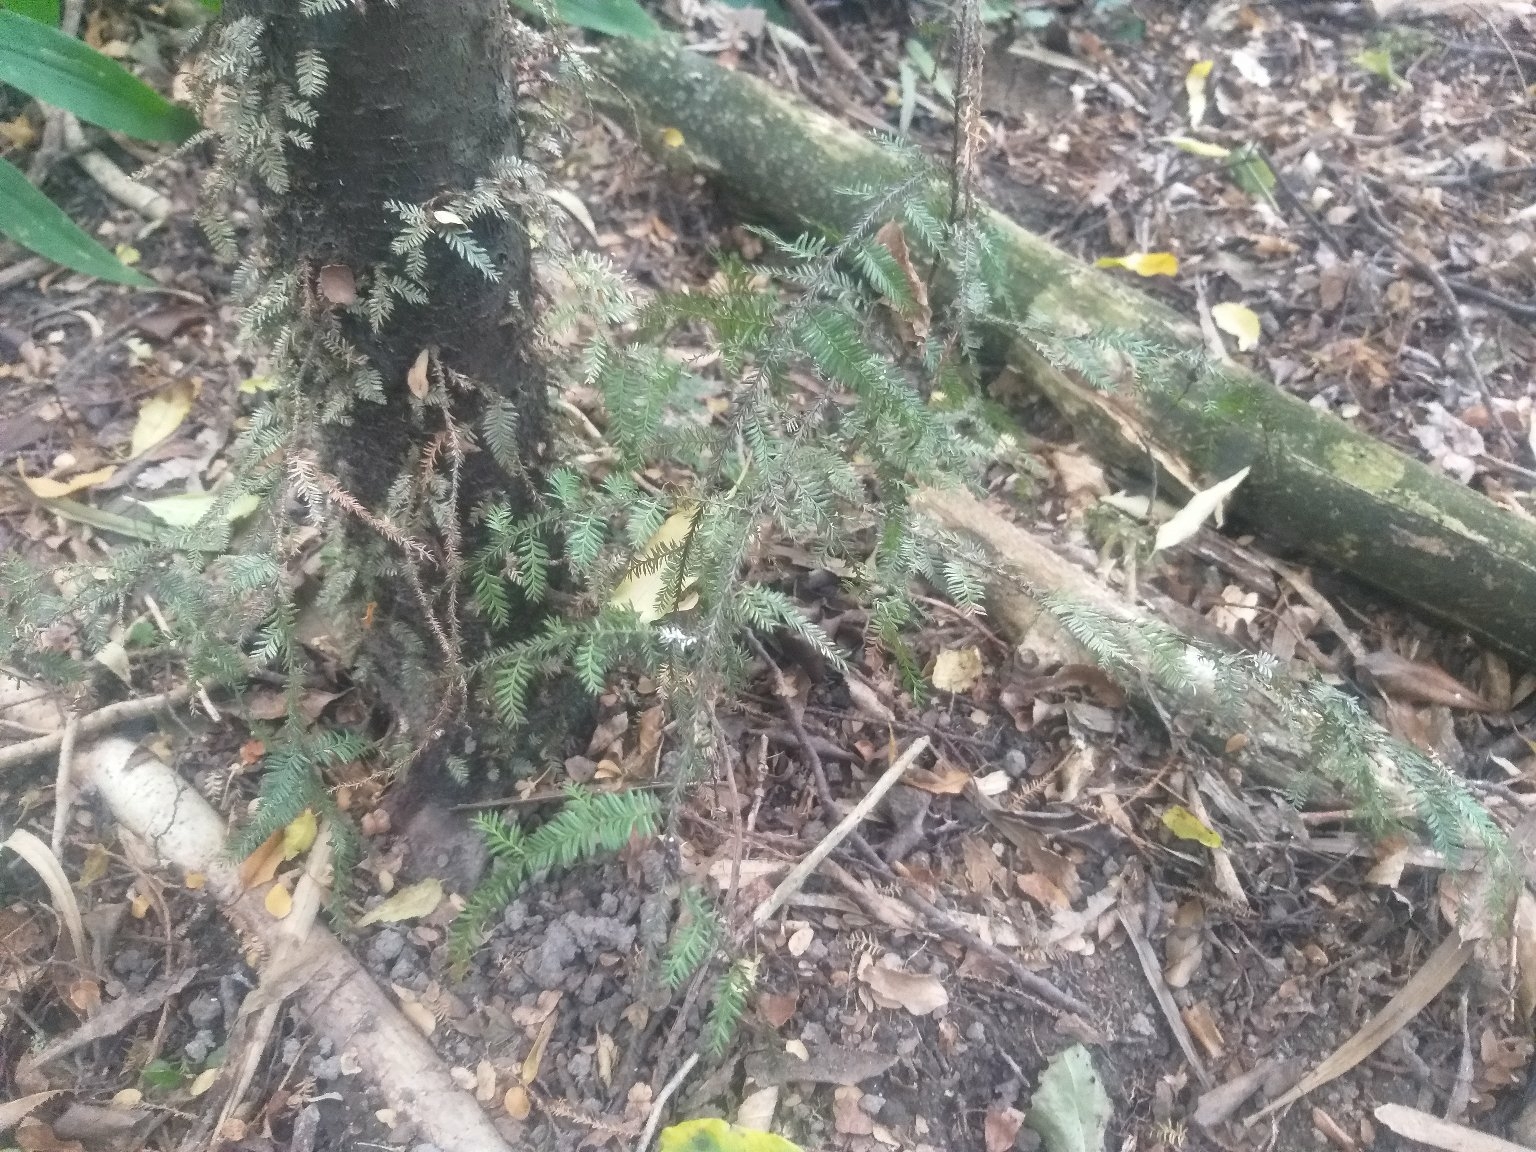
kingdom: Plantae
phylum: Tracheophyta
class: Pinopsida
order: Pinales
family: Podocarpaceae
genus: Dacrycarpus
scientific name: Dacrycarpus dacrydioides
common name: White pine
